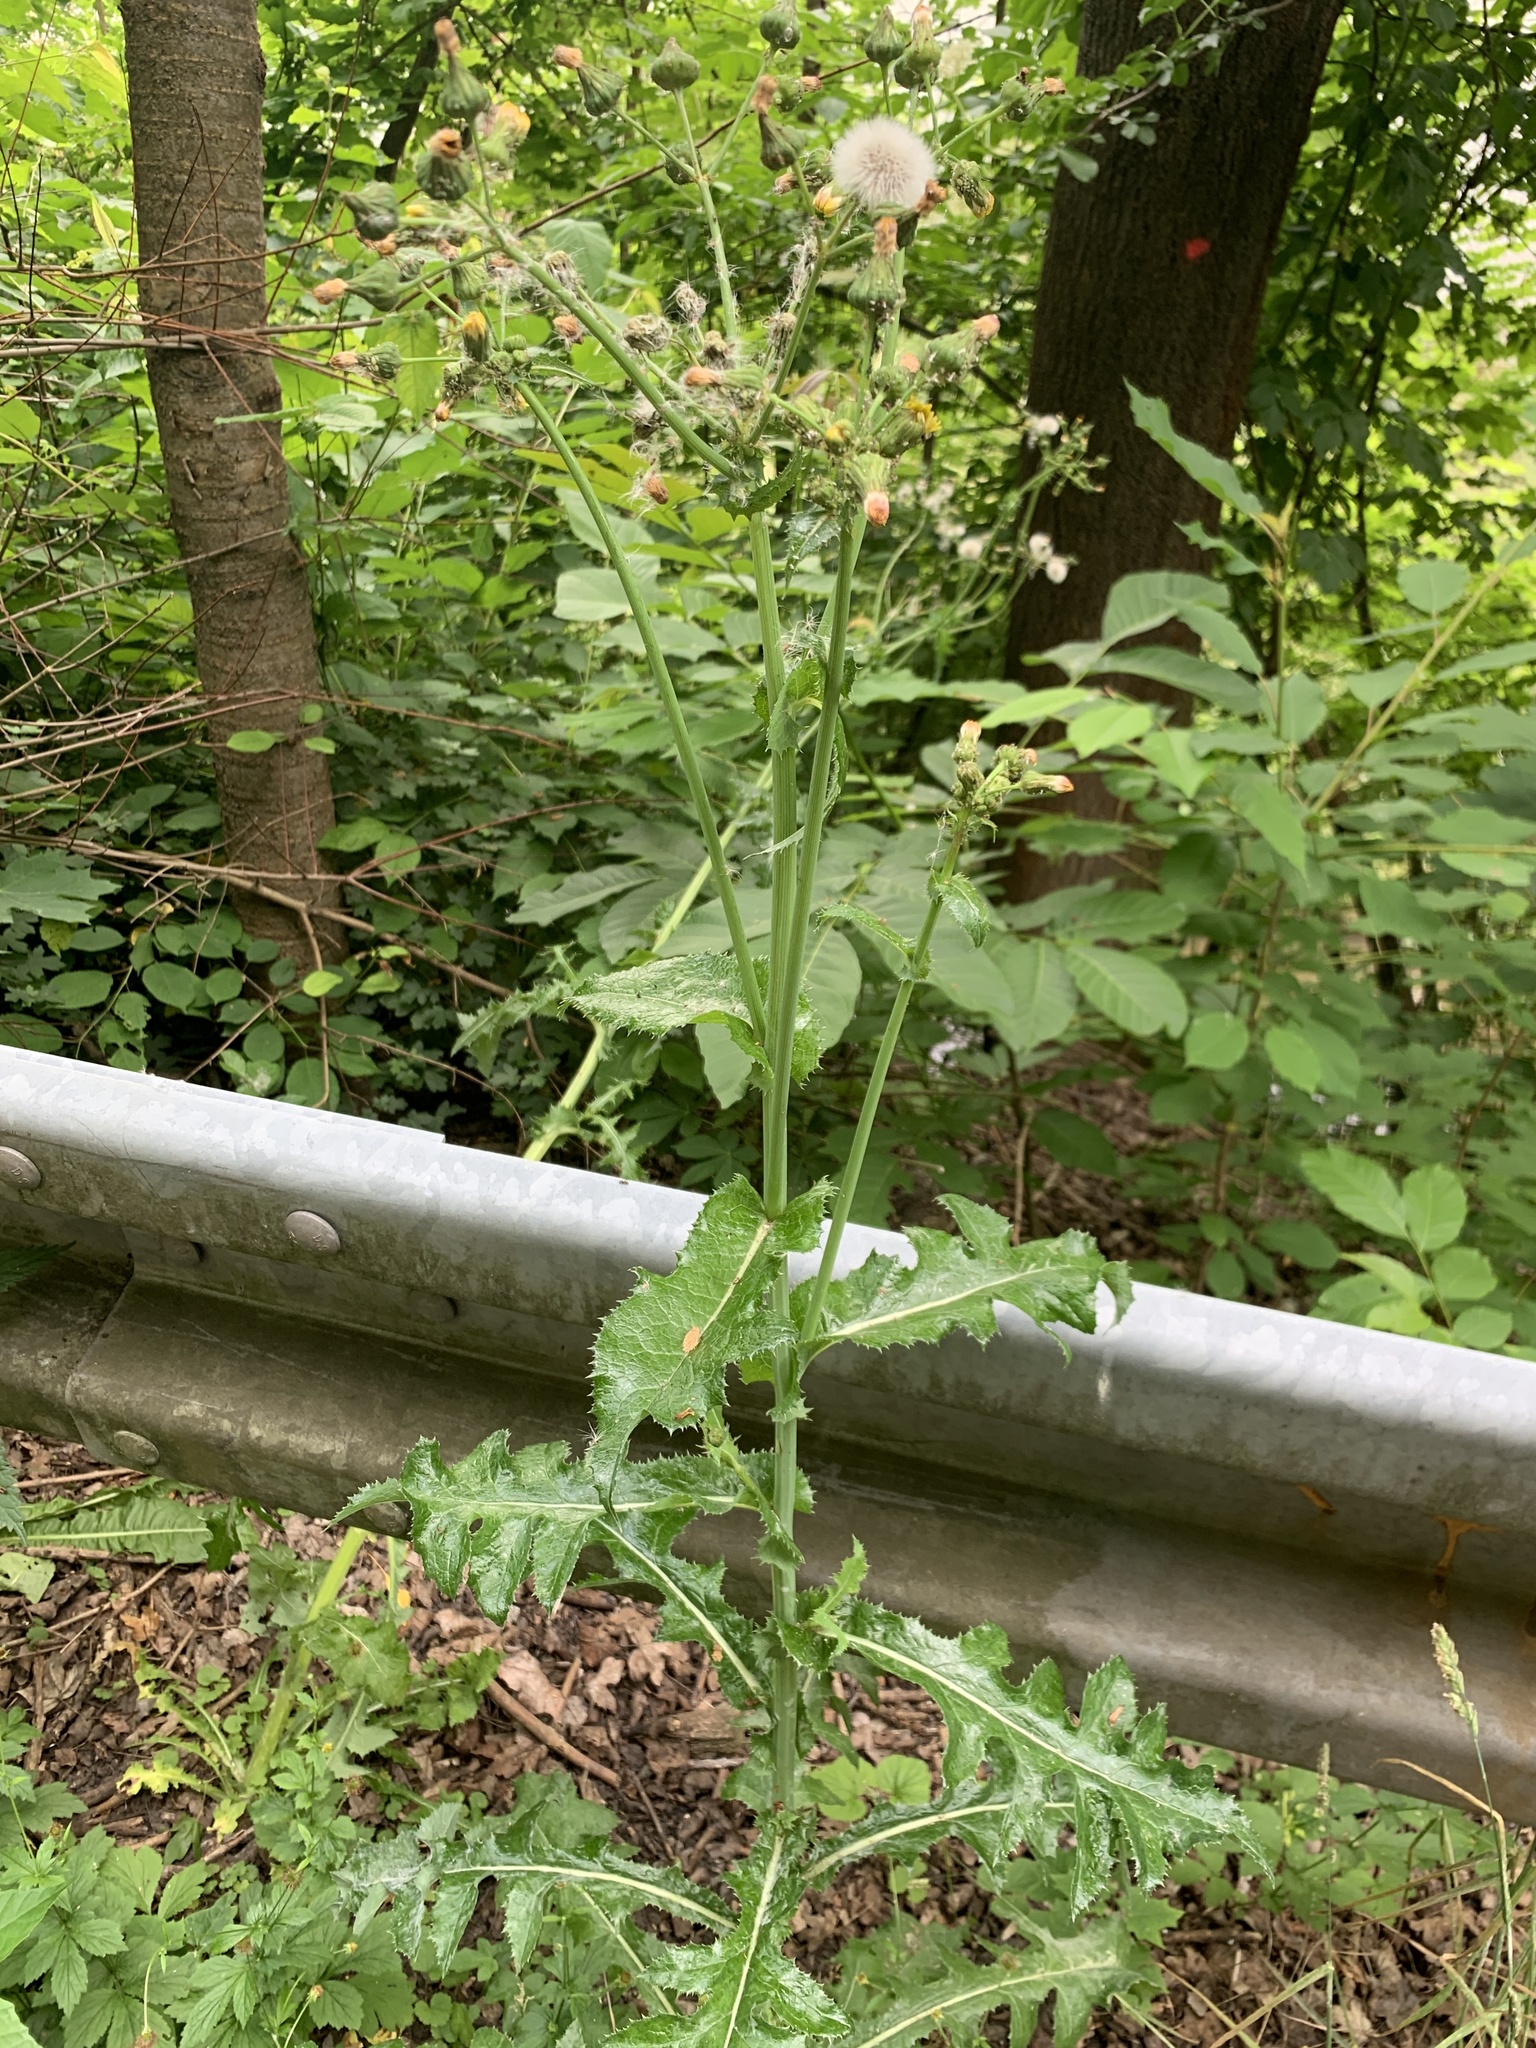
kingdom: Plantae
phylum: Tracheophyta
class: Magnoliopsida
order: Asterales
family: Asteraceae
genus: Sonchus
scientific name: Sonchus asper
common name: Prickly sow-thistle
